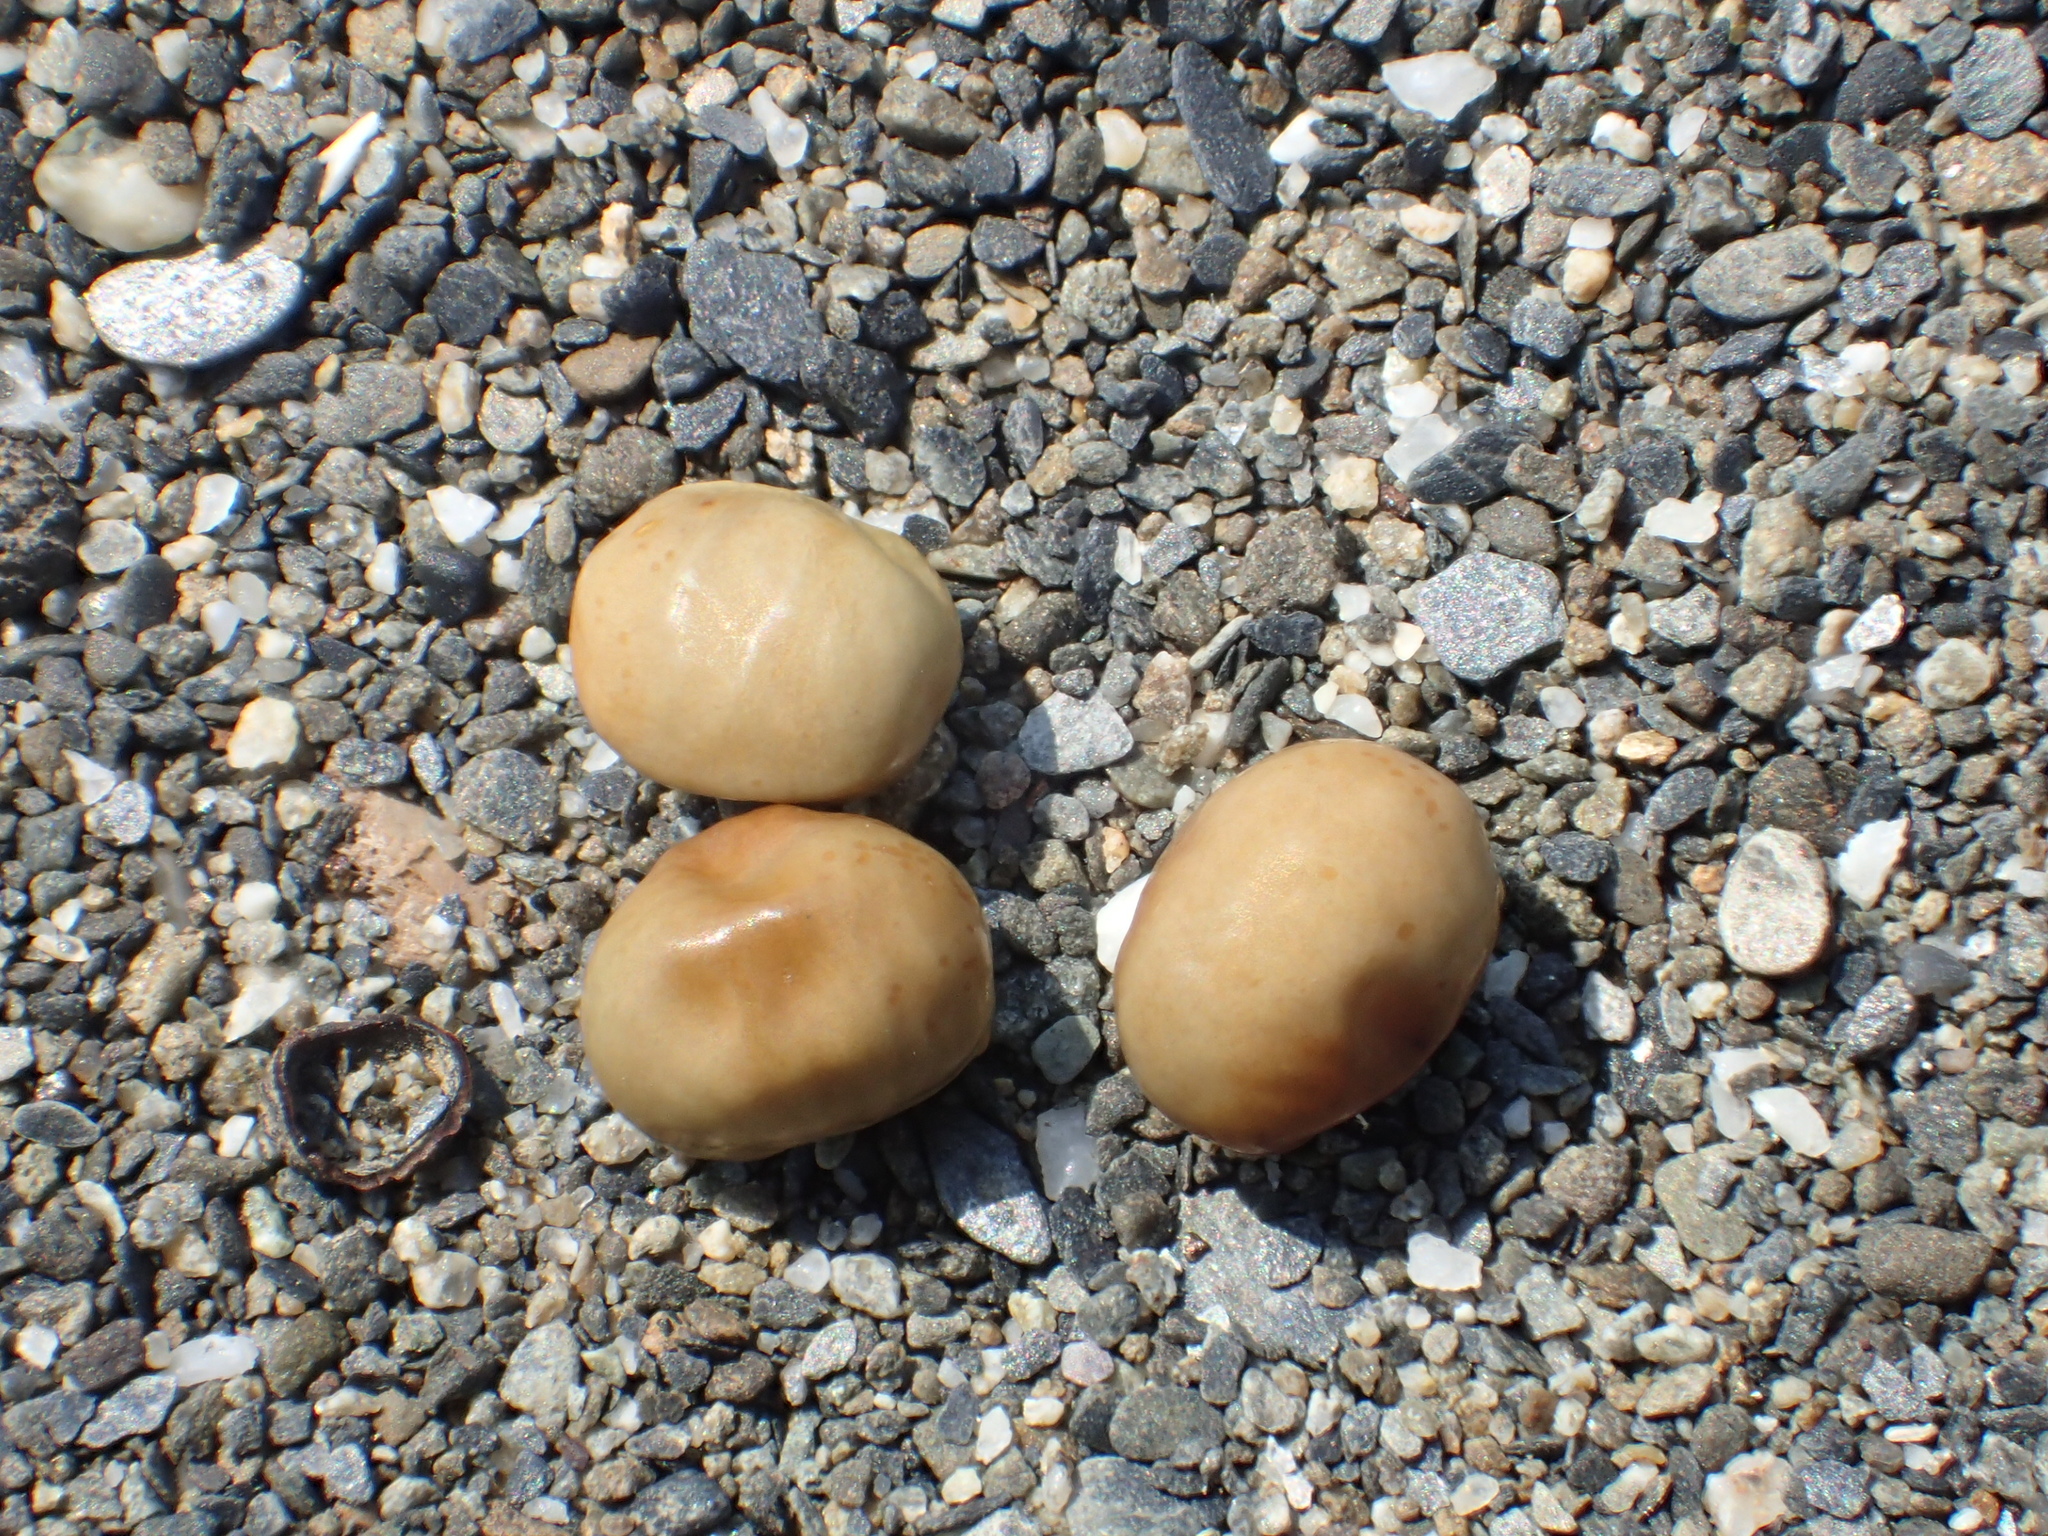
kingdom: Plantae
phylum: Tracheophyta
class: Magnoliopsida
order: Fabales
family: Fabaceae
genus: Vigna
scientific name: Vigna marina
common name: Dune-bean
